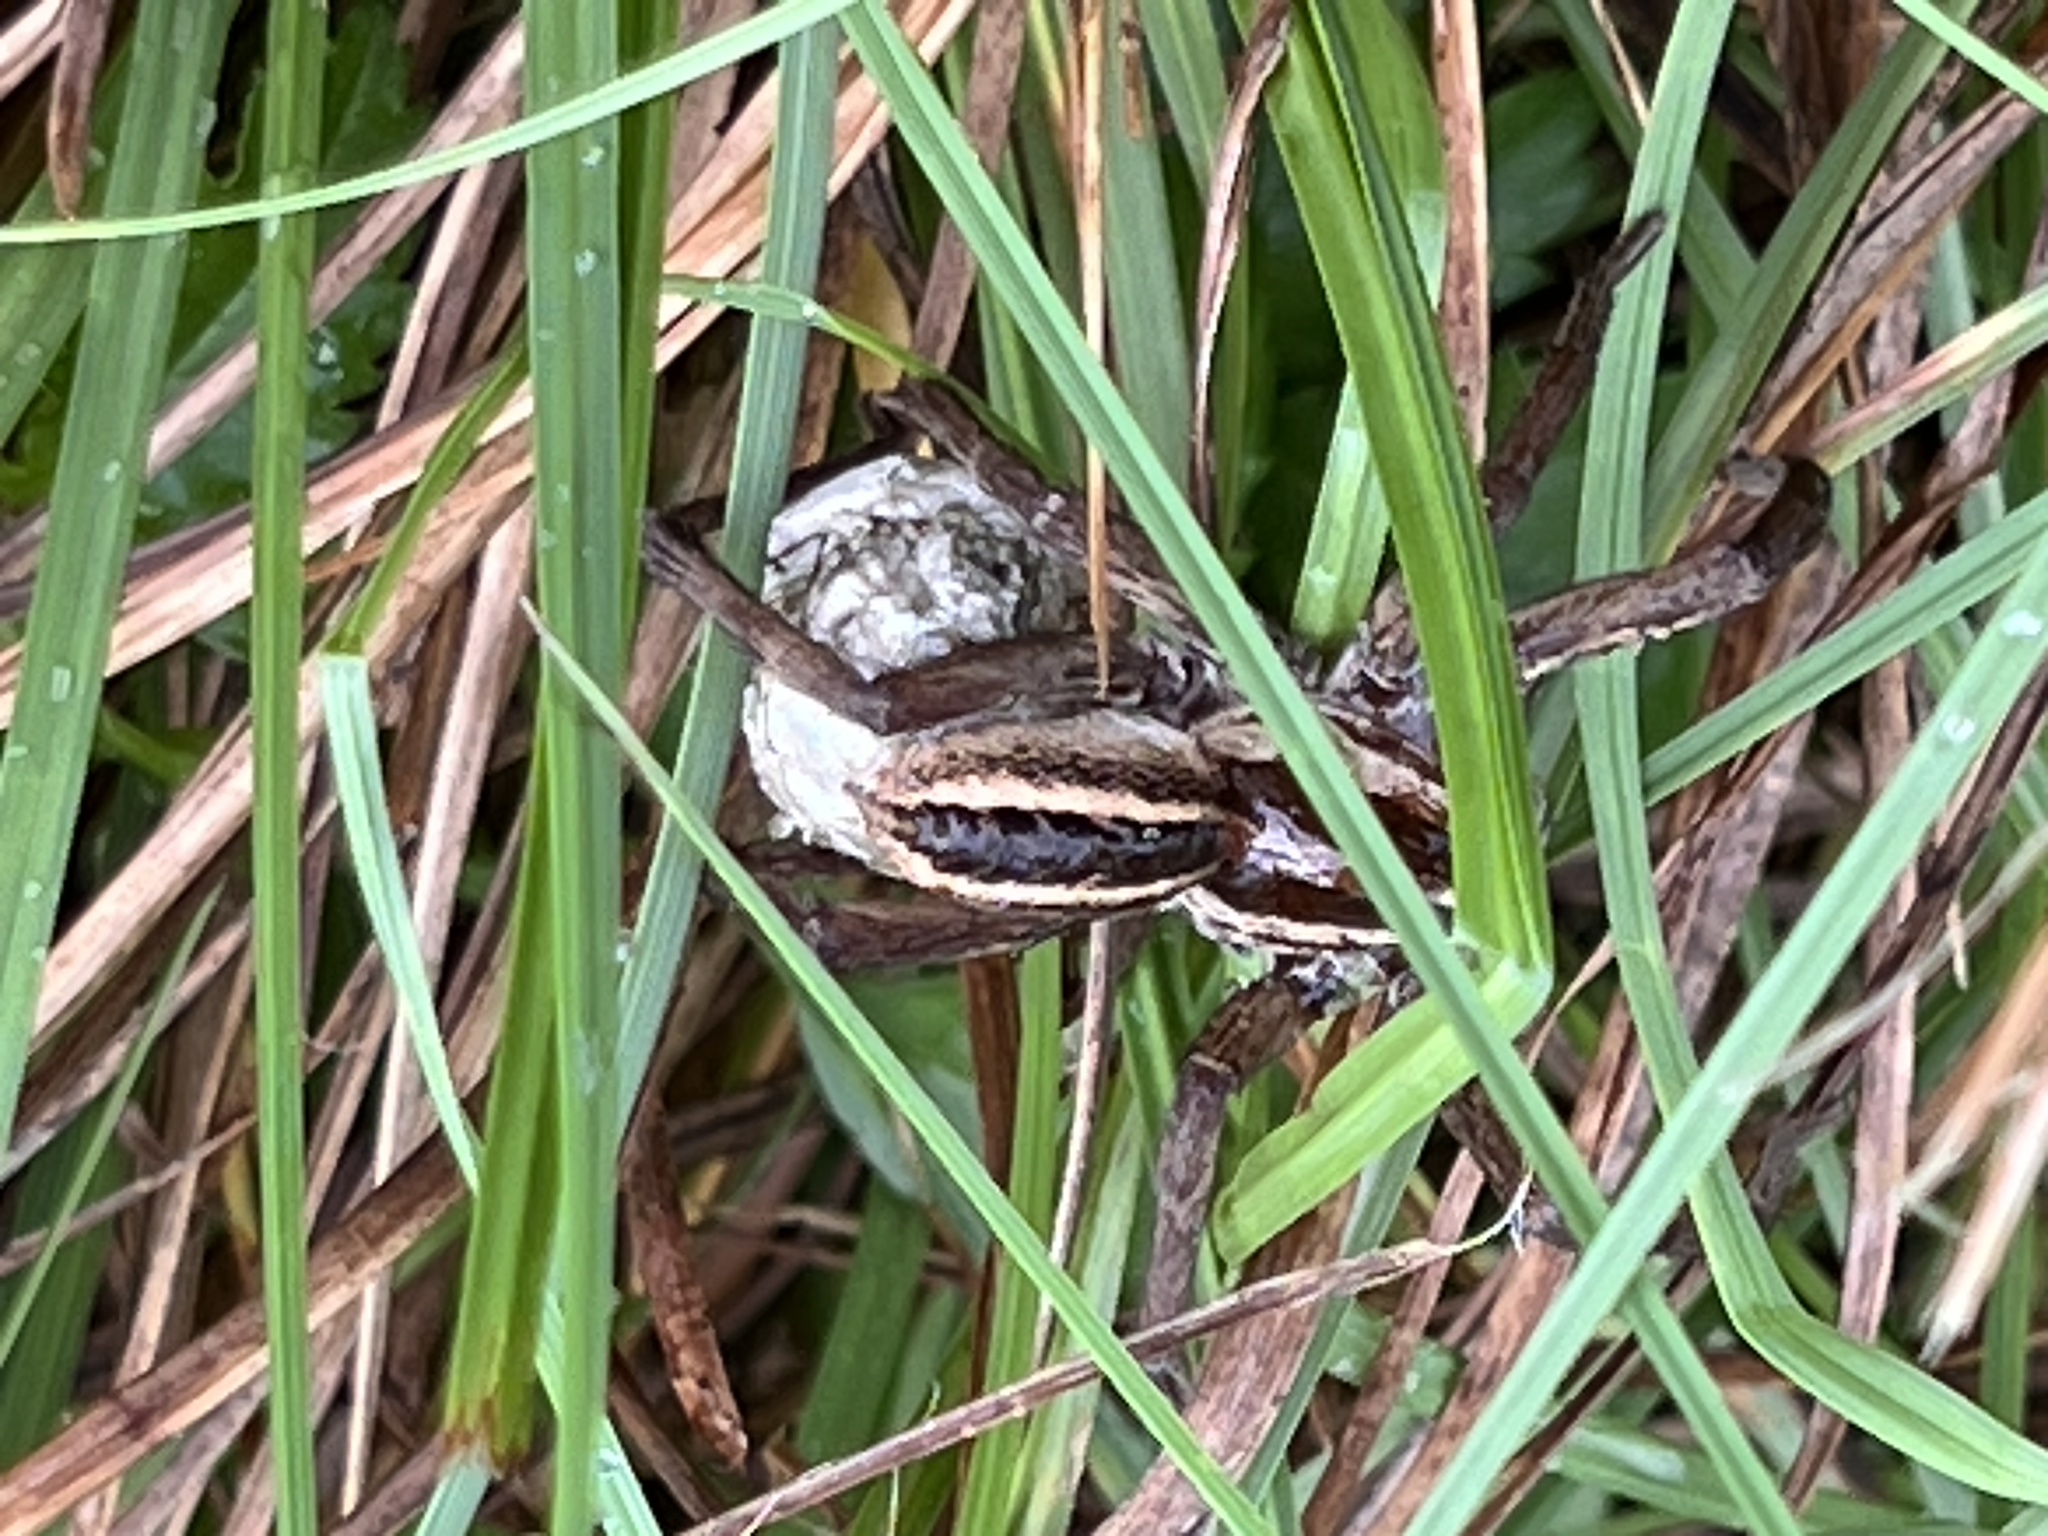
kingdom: Animalia
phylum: Arthropoda
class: Arachnida
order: Araneae
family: Lycosidae
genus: Rabidosa
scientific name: Rabidosa rabida
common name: Rabid wolf spider
